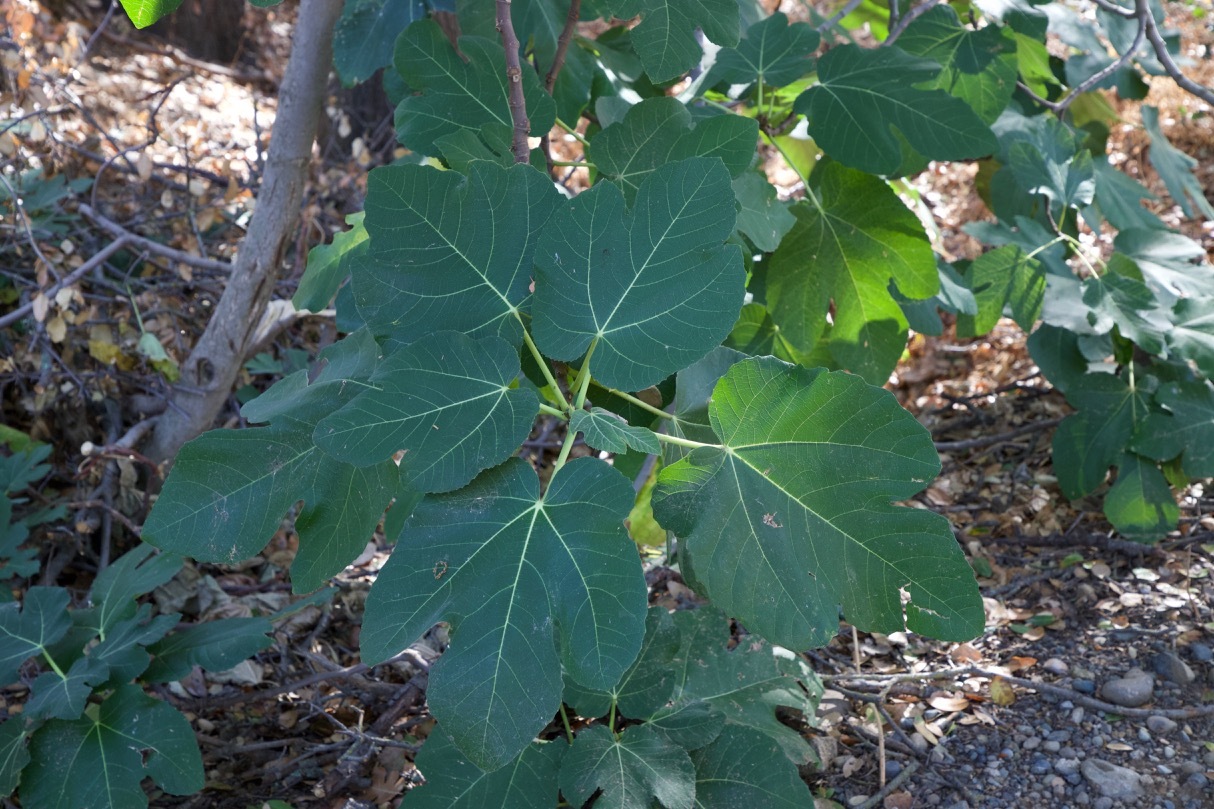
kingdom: Plantae
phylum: Tracheophyta
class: Magnoliopsida
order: Rosales
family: Moraceae
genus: Ficus
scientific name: Ficus carica
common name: Fig
